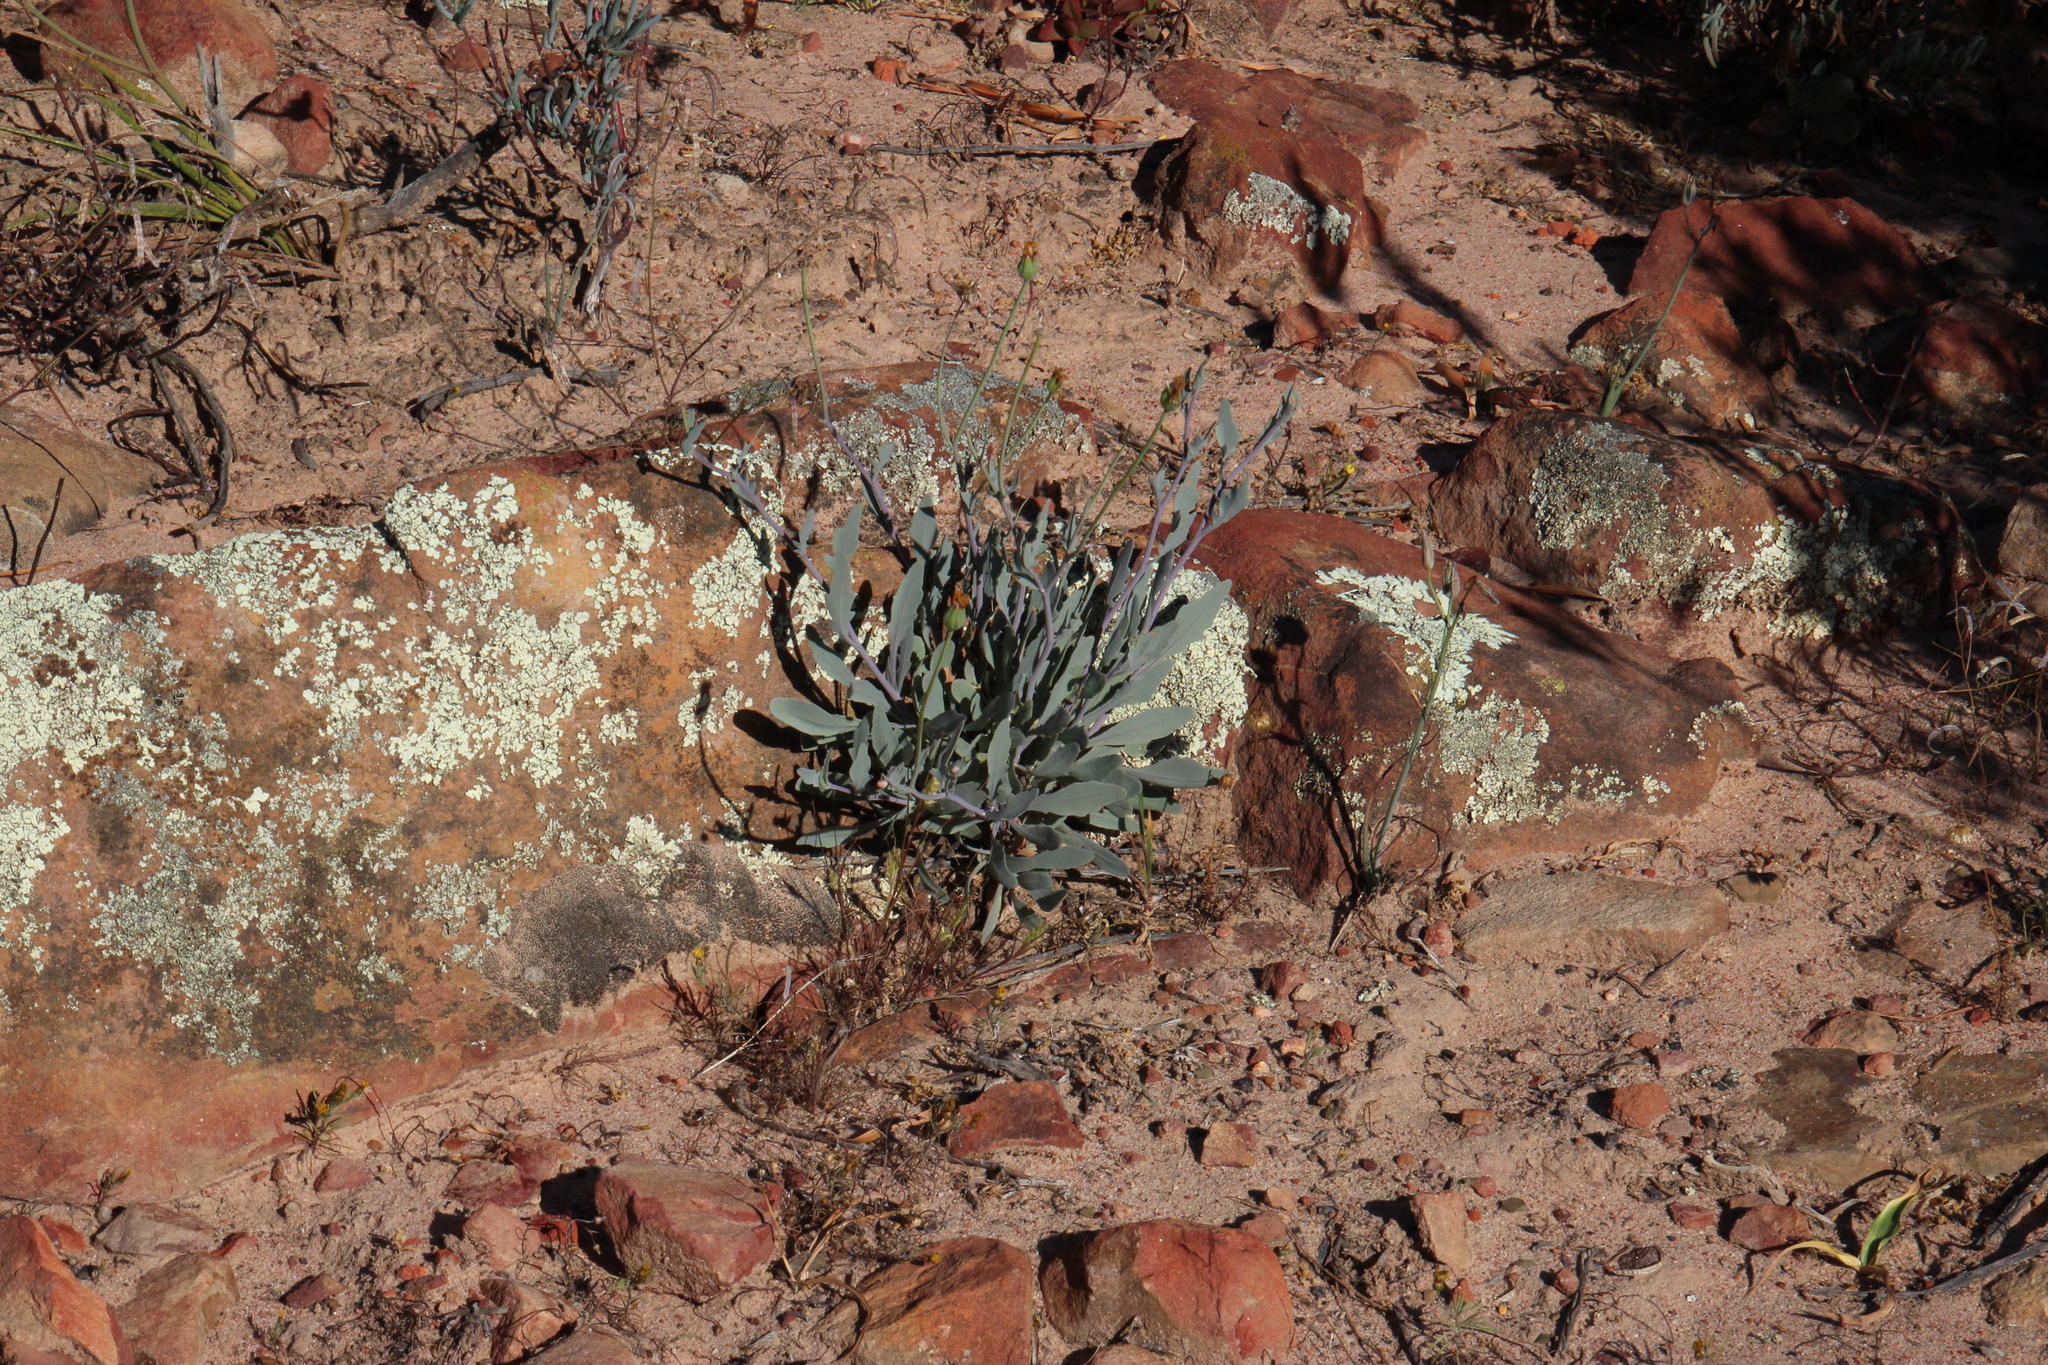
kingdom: Plantae
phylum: Tracheophyta
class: Magnoliopsida
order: Asterales
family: Asteraceae
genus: Othonna
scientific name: Othonna humilis
